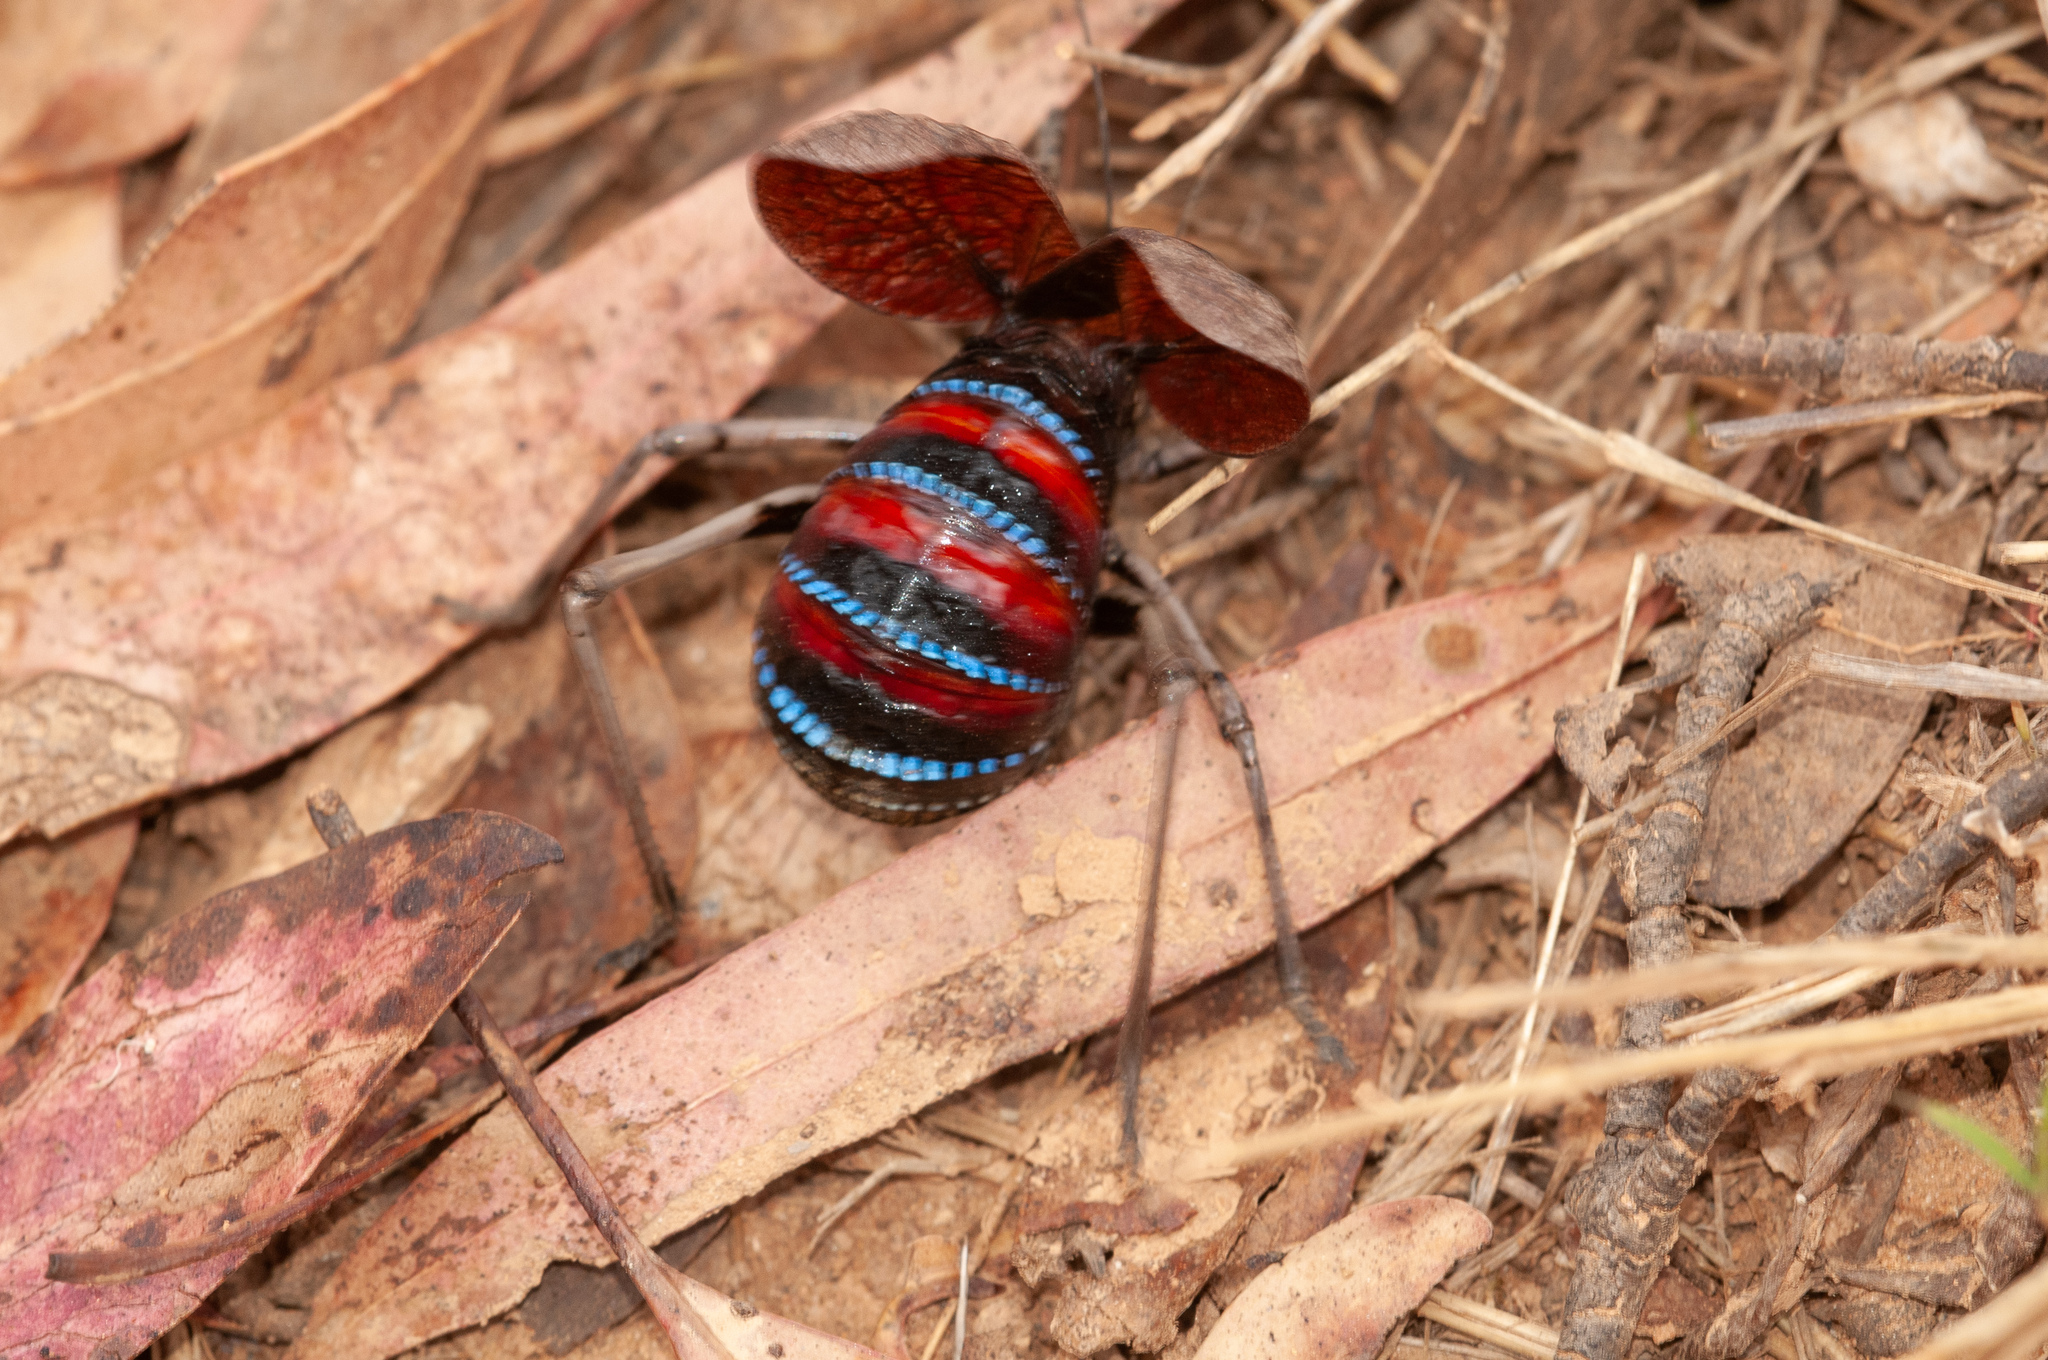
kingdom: Animalia
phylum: Arthropoda
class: Insecta
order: Orthoptera
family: Tettigoniidae
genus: Acripeza
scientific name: Acripeza reticulata
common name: Mountain katydid
